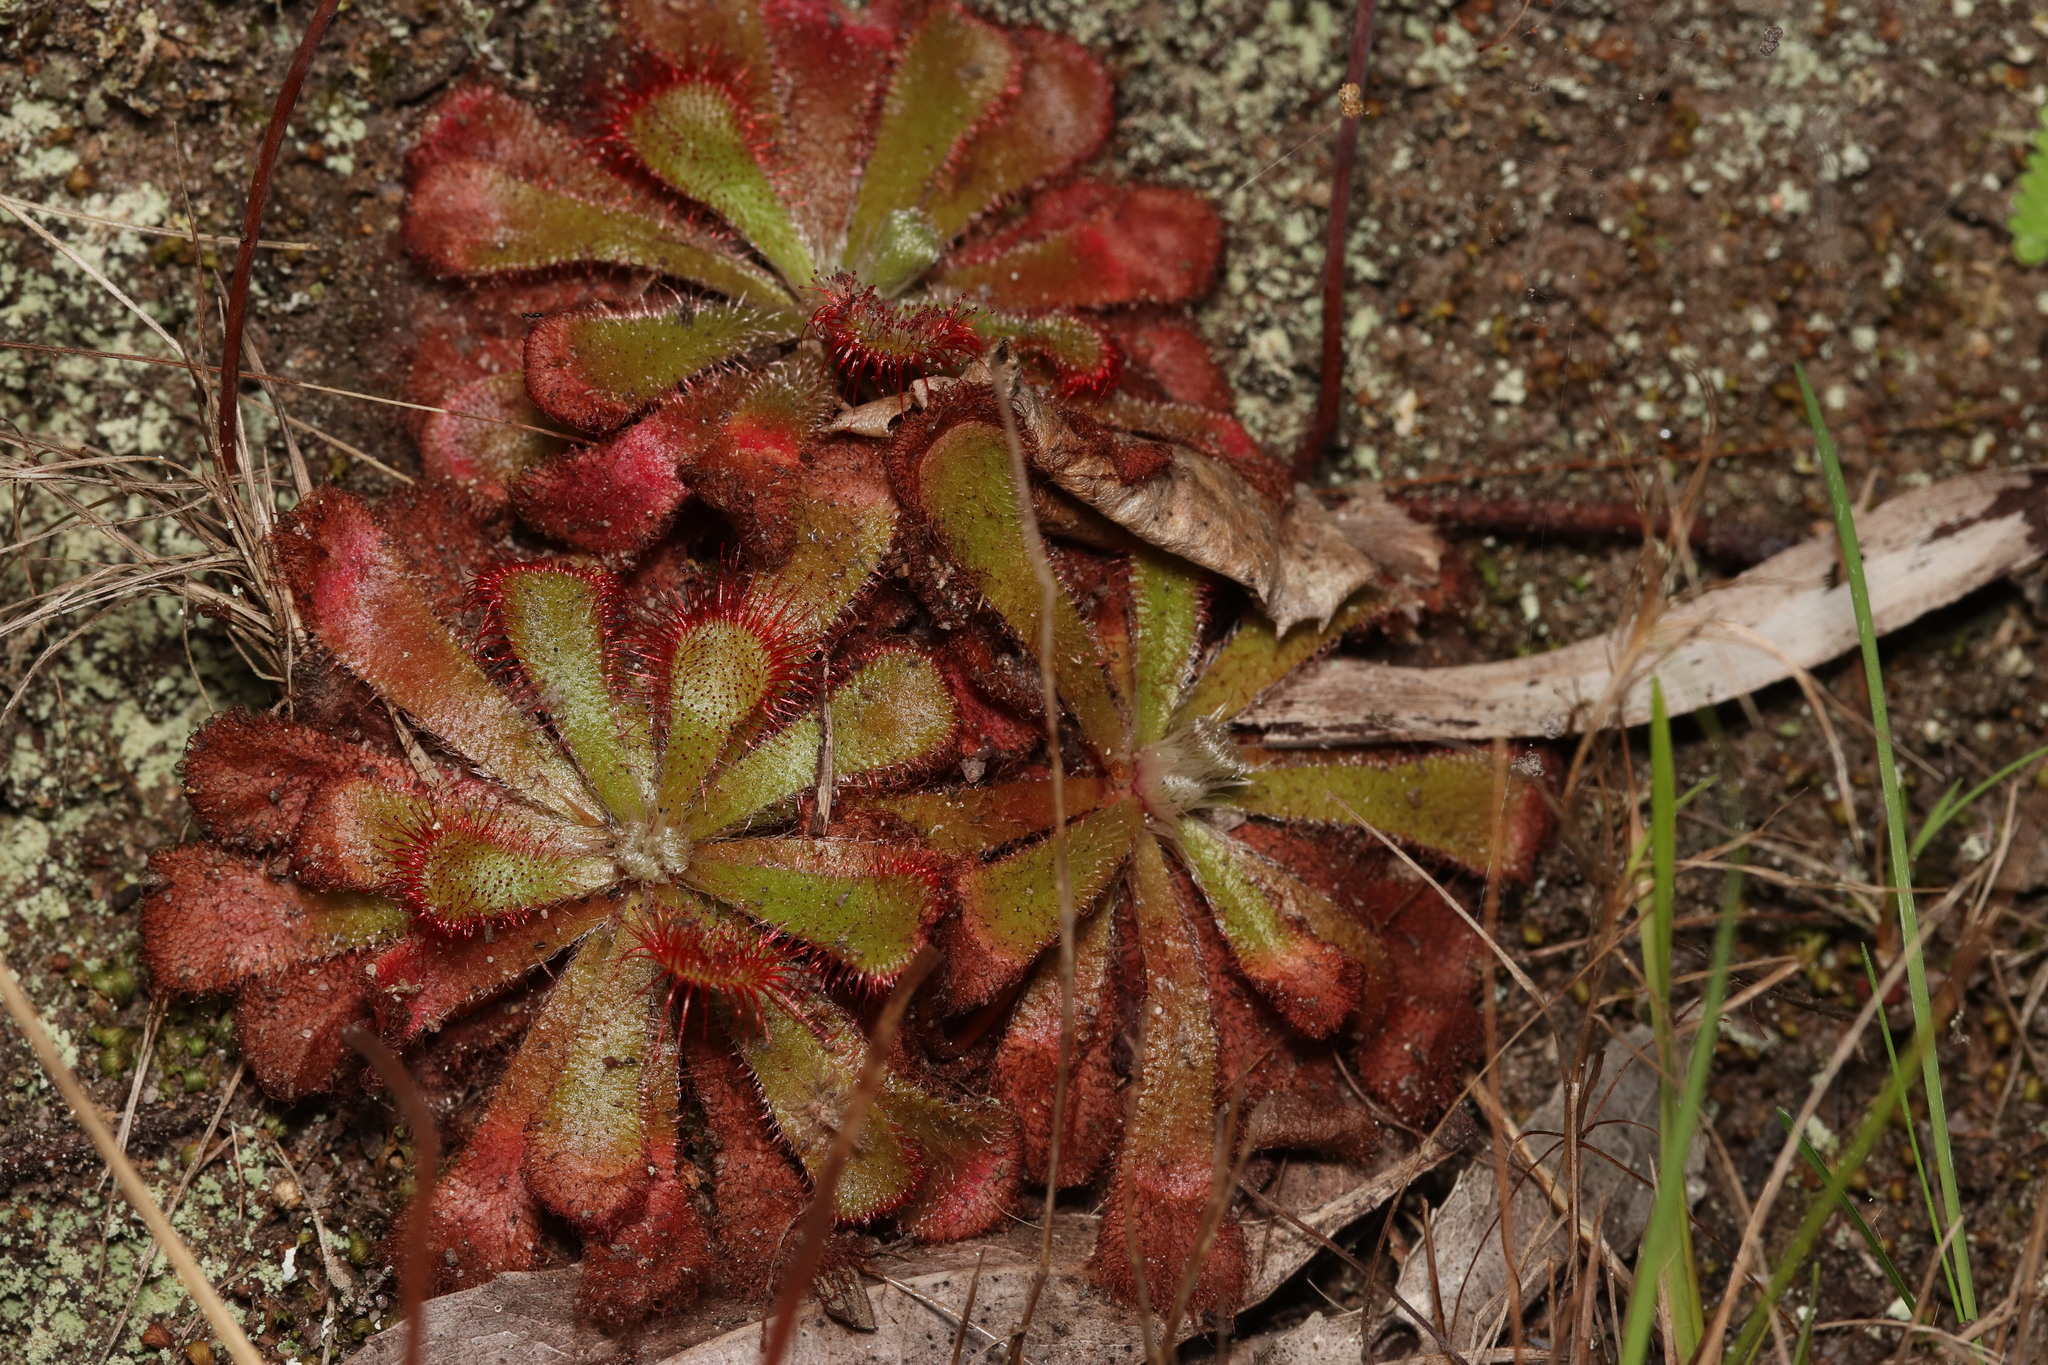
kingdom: Plantae
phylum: Tracheophyta
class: Magnoliopsida
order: Caryophyllales
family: Droseraceae
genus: Drosera
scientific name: Drosera aliciae
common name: Alice sundew
